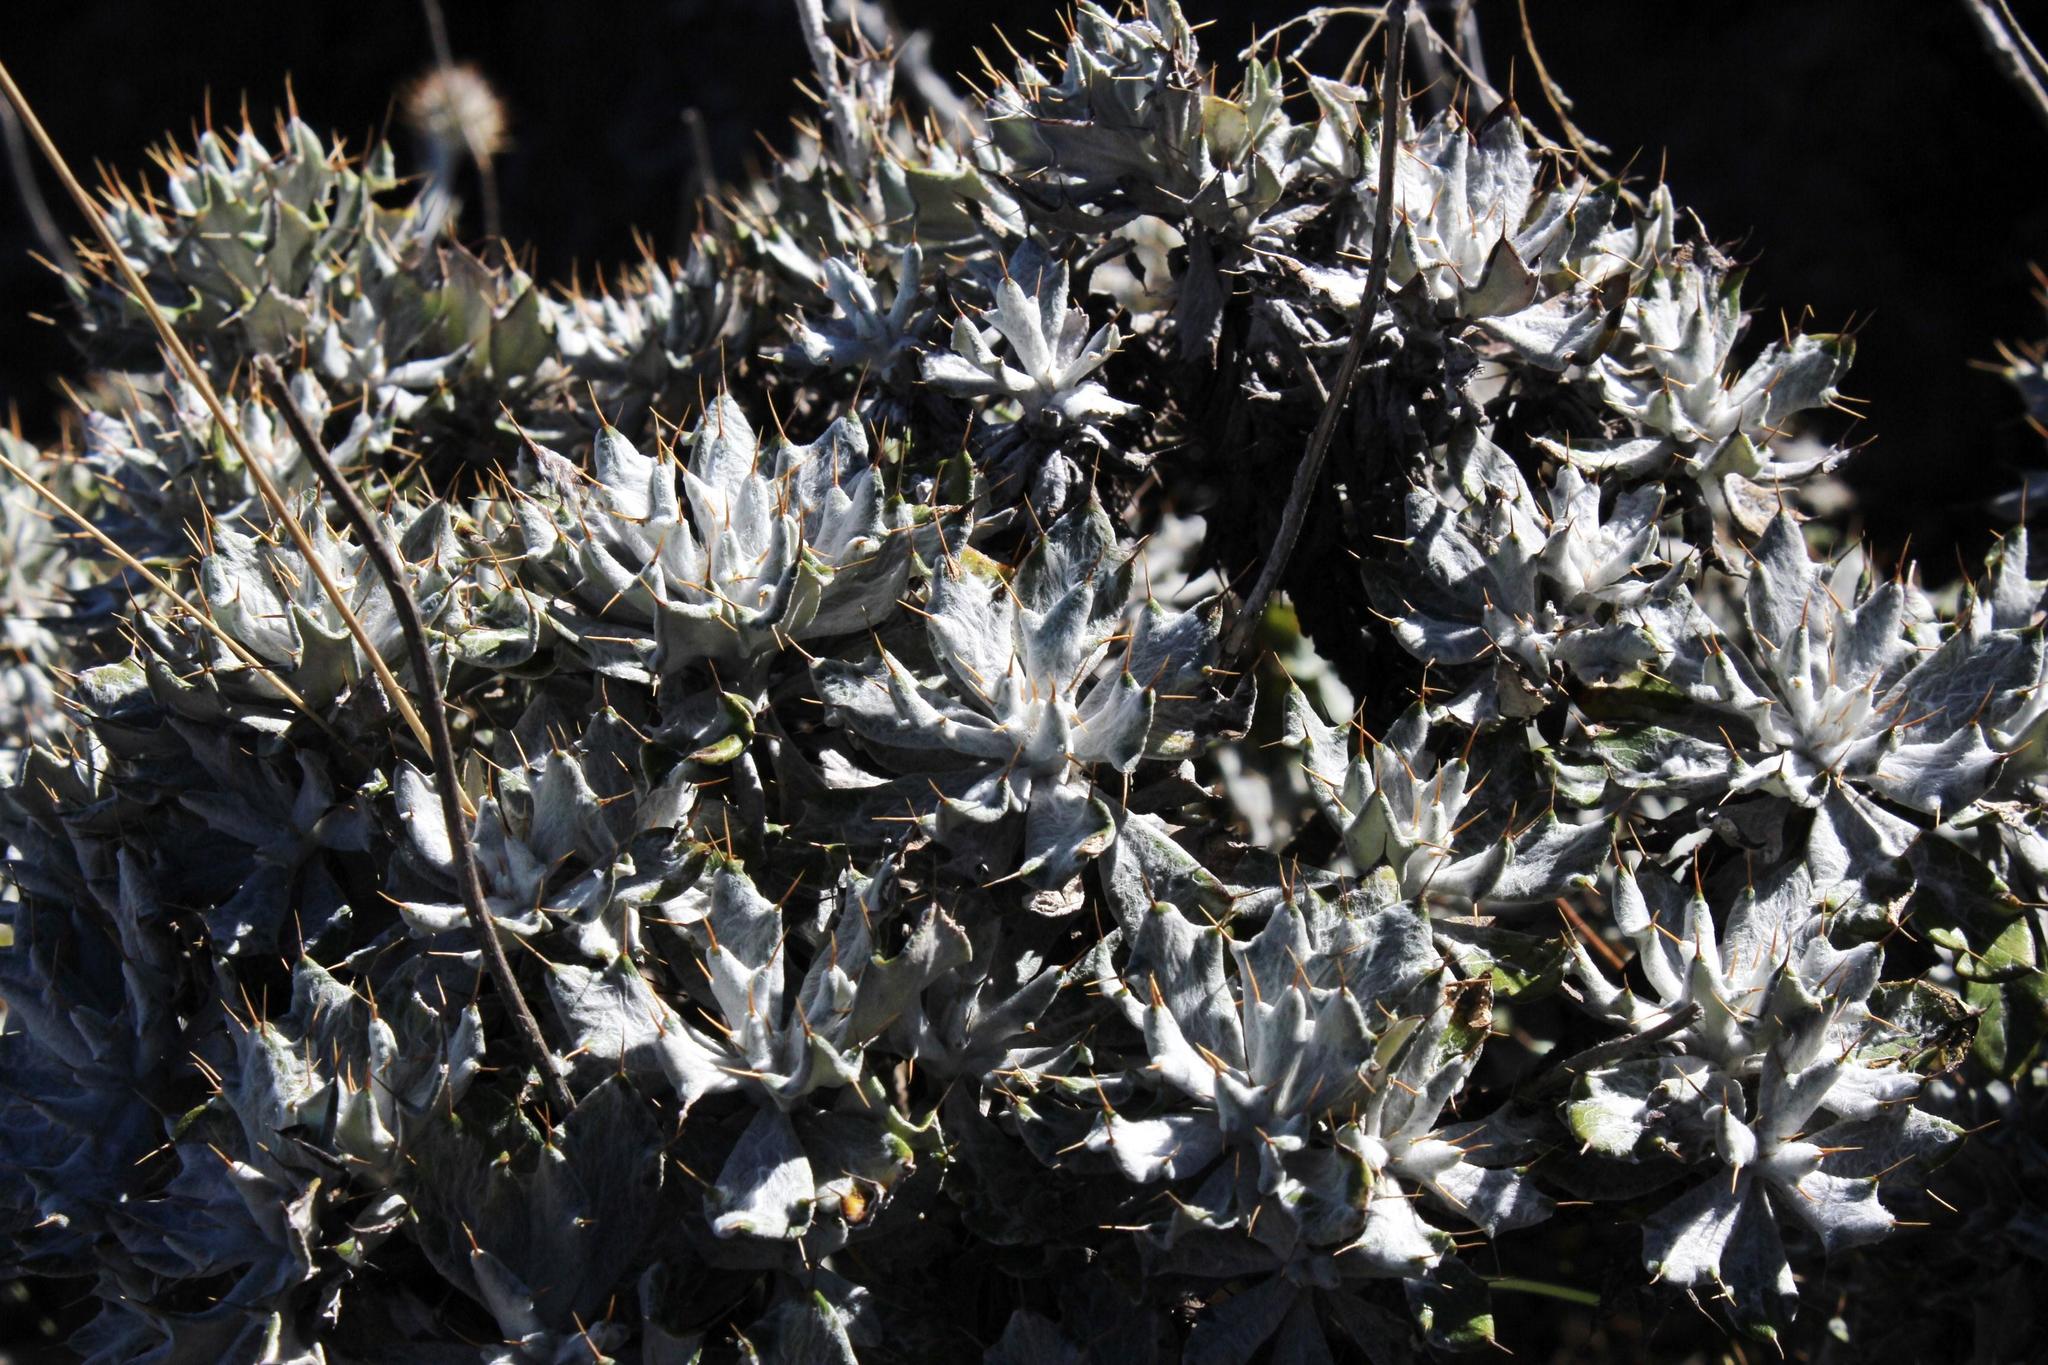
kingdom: Plantae
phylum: Tracheophyta
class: Magnoliopsida
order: Asterales
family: Asteraceae
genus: Berkheya
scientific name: Berkheya rosulata
